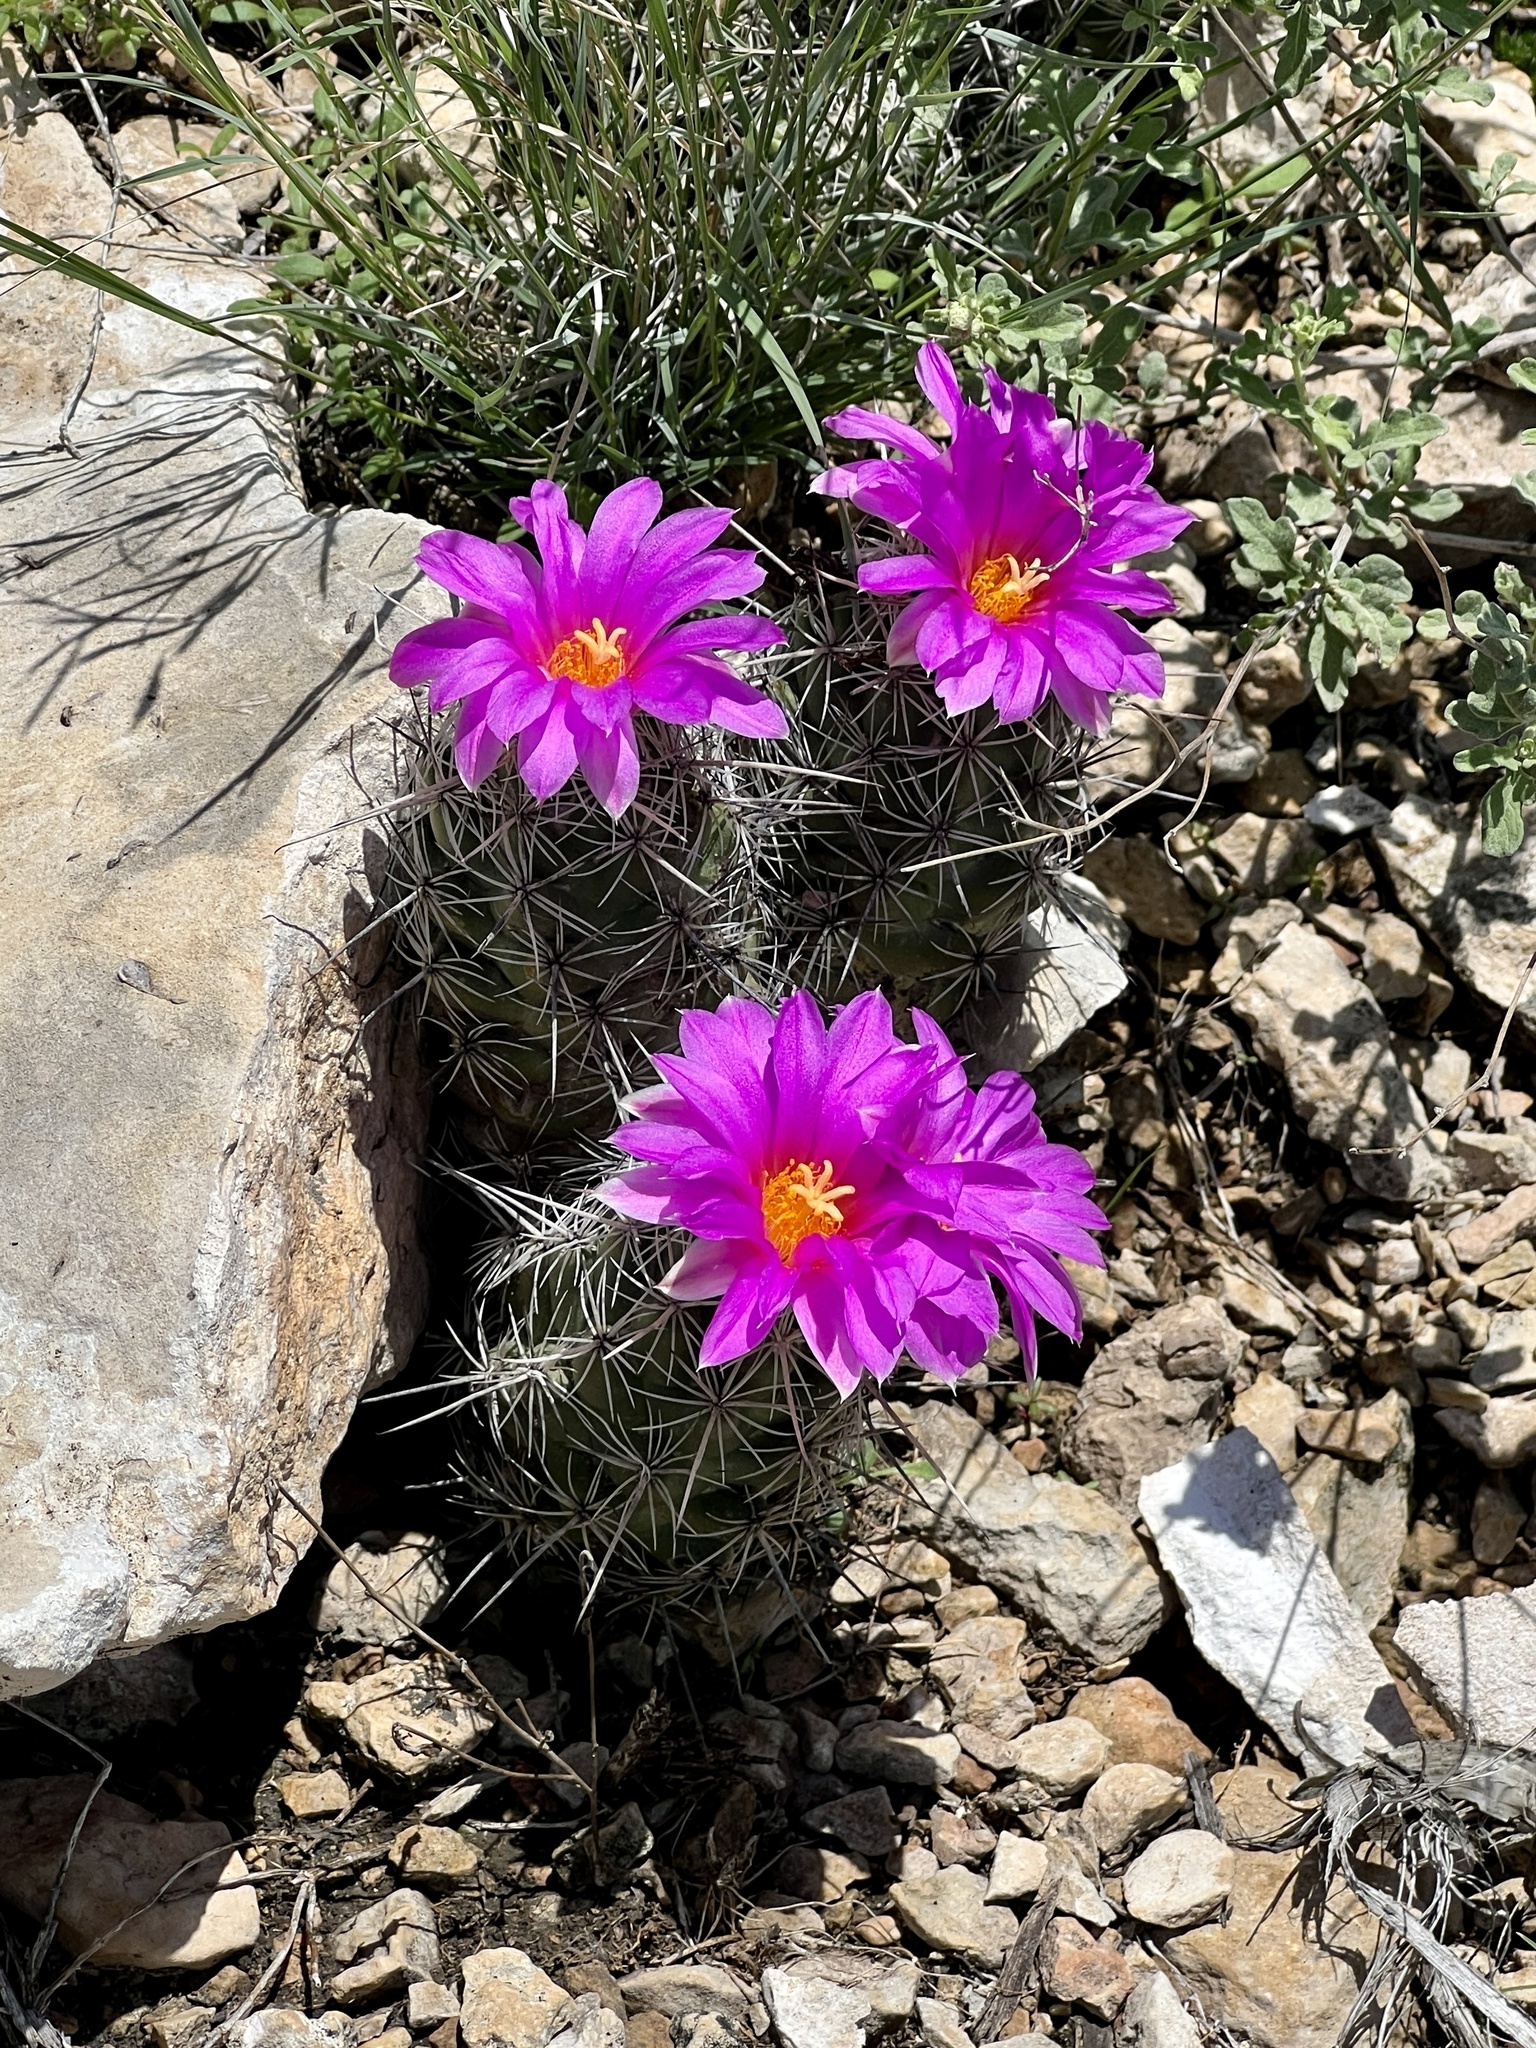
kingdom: Plantae
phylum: Tracheophyta
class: Magnoliopsida
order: Caryophyllales
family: Cactaceae
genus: Cochemiea
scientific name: Cochemiea conoidea
